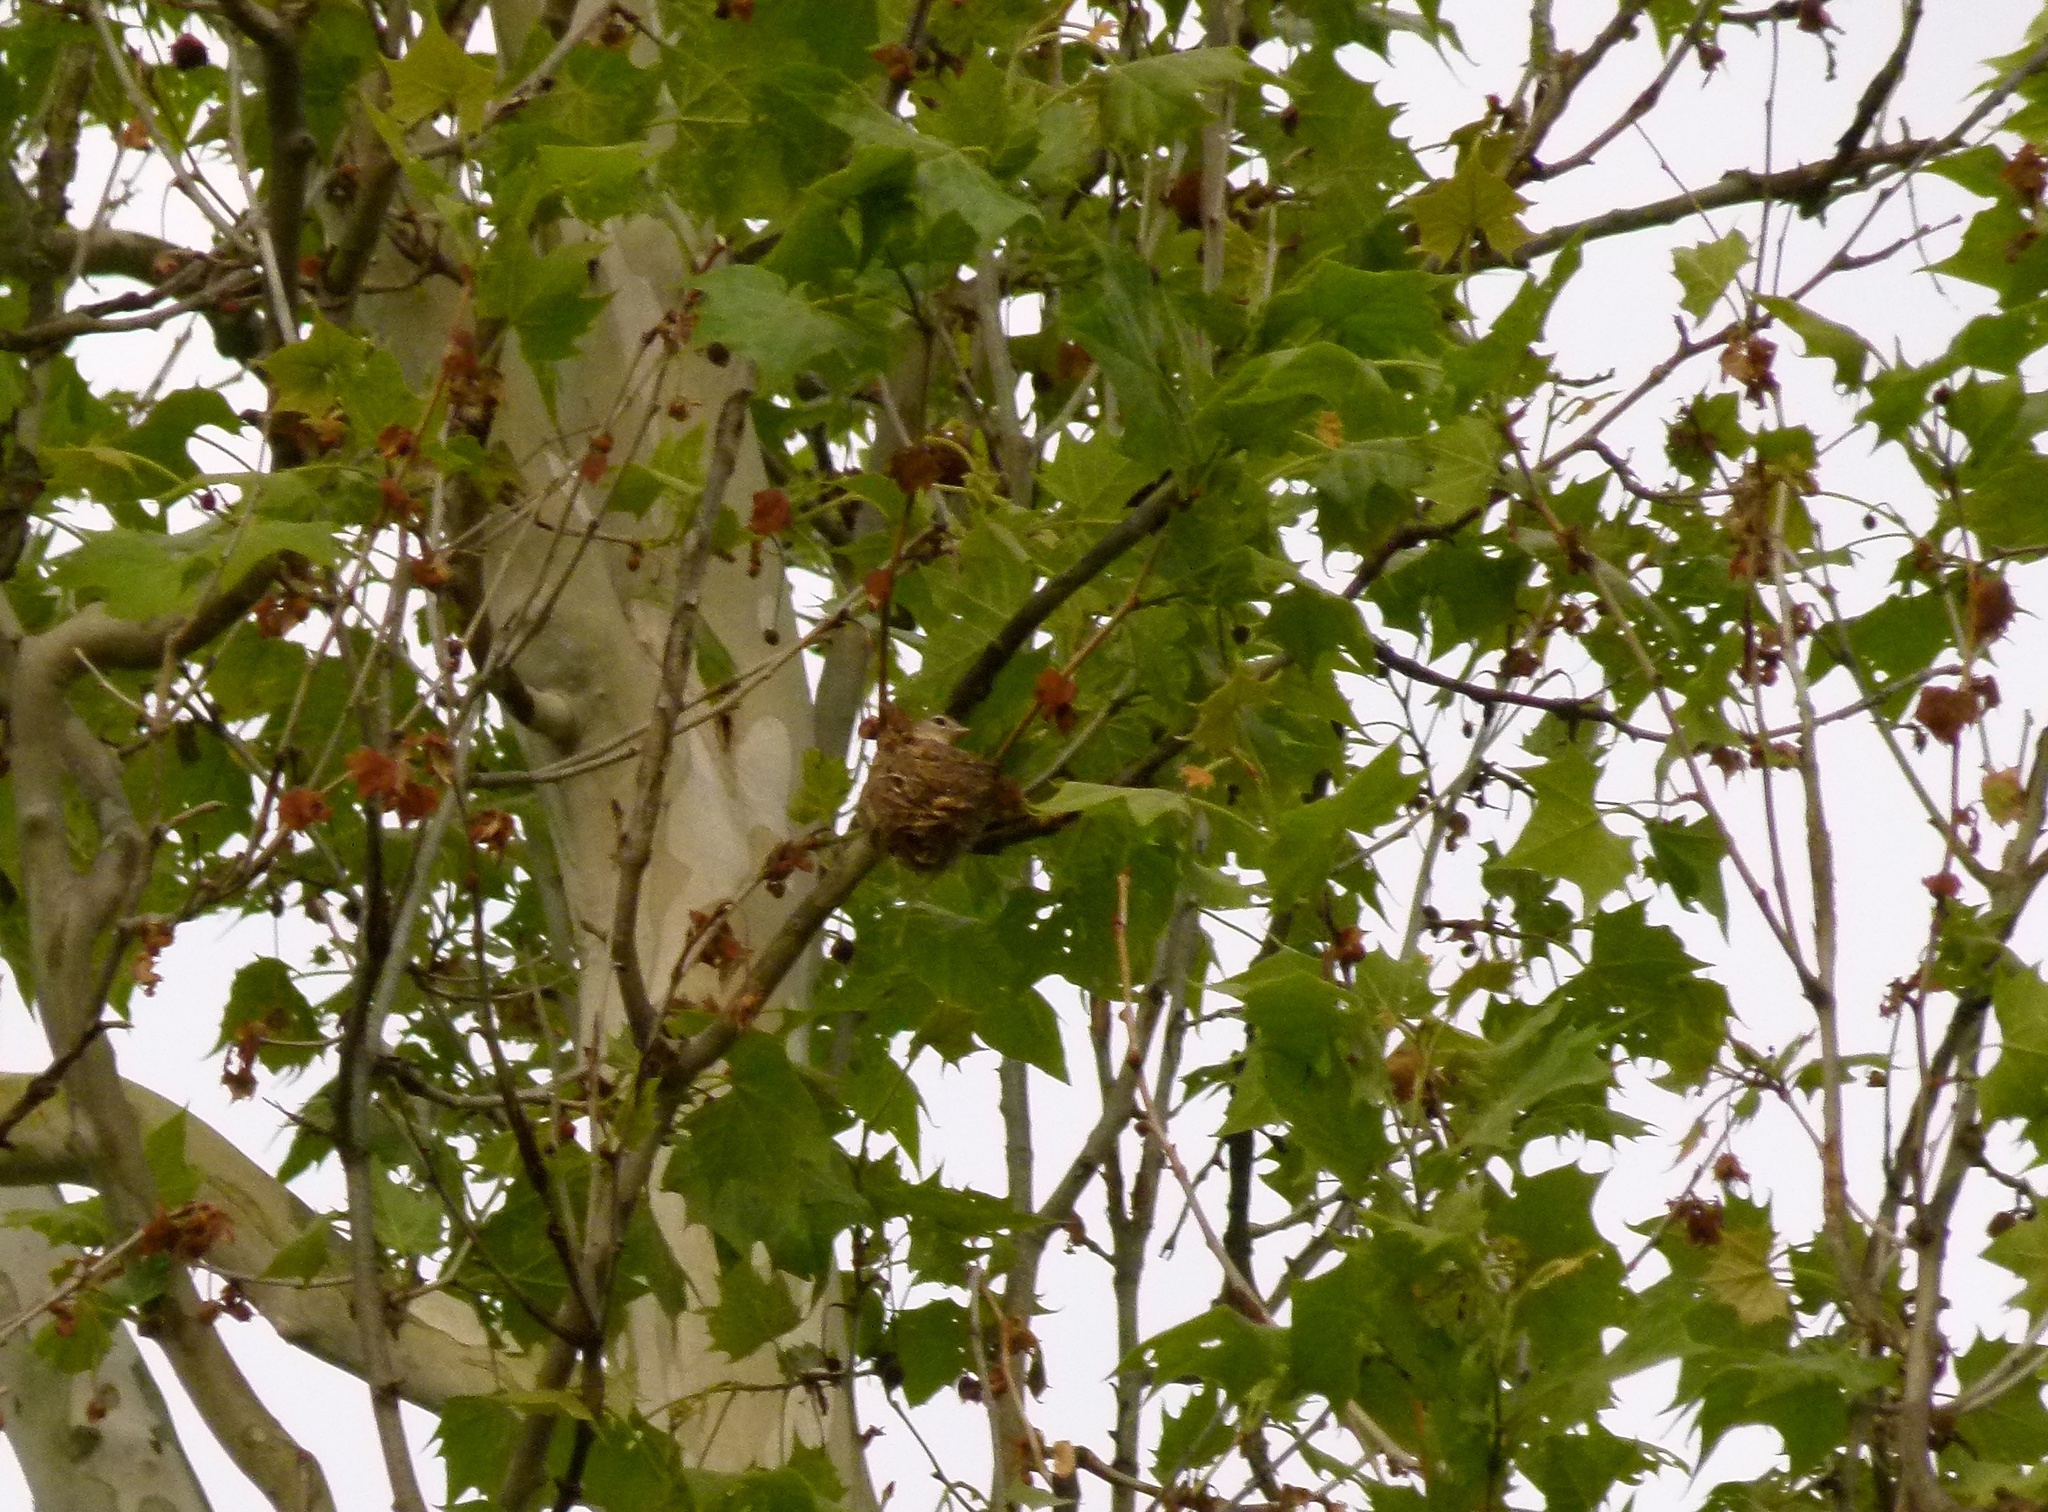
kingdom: Animalia
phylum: Chordata
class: Aves
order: Passeriformes
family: Vireonidae
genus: Vireo
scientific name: Vireo gilvus
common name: Warbling vireo
